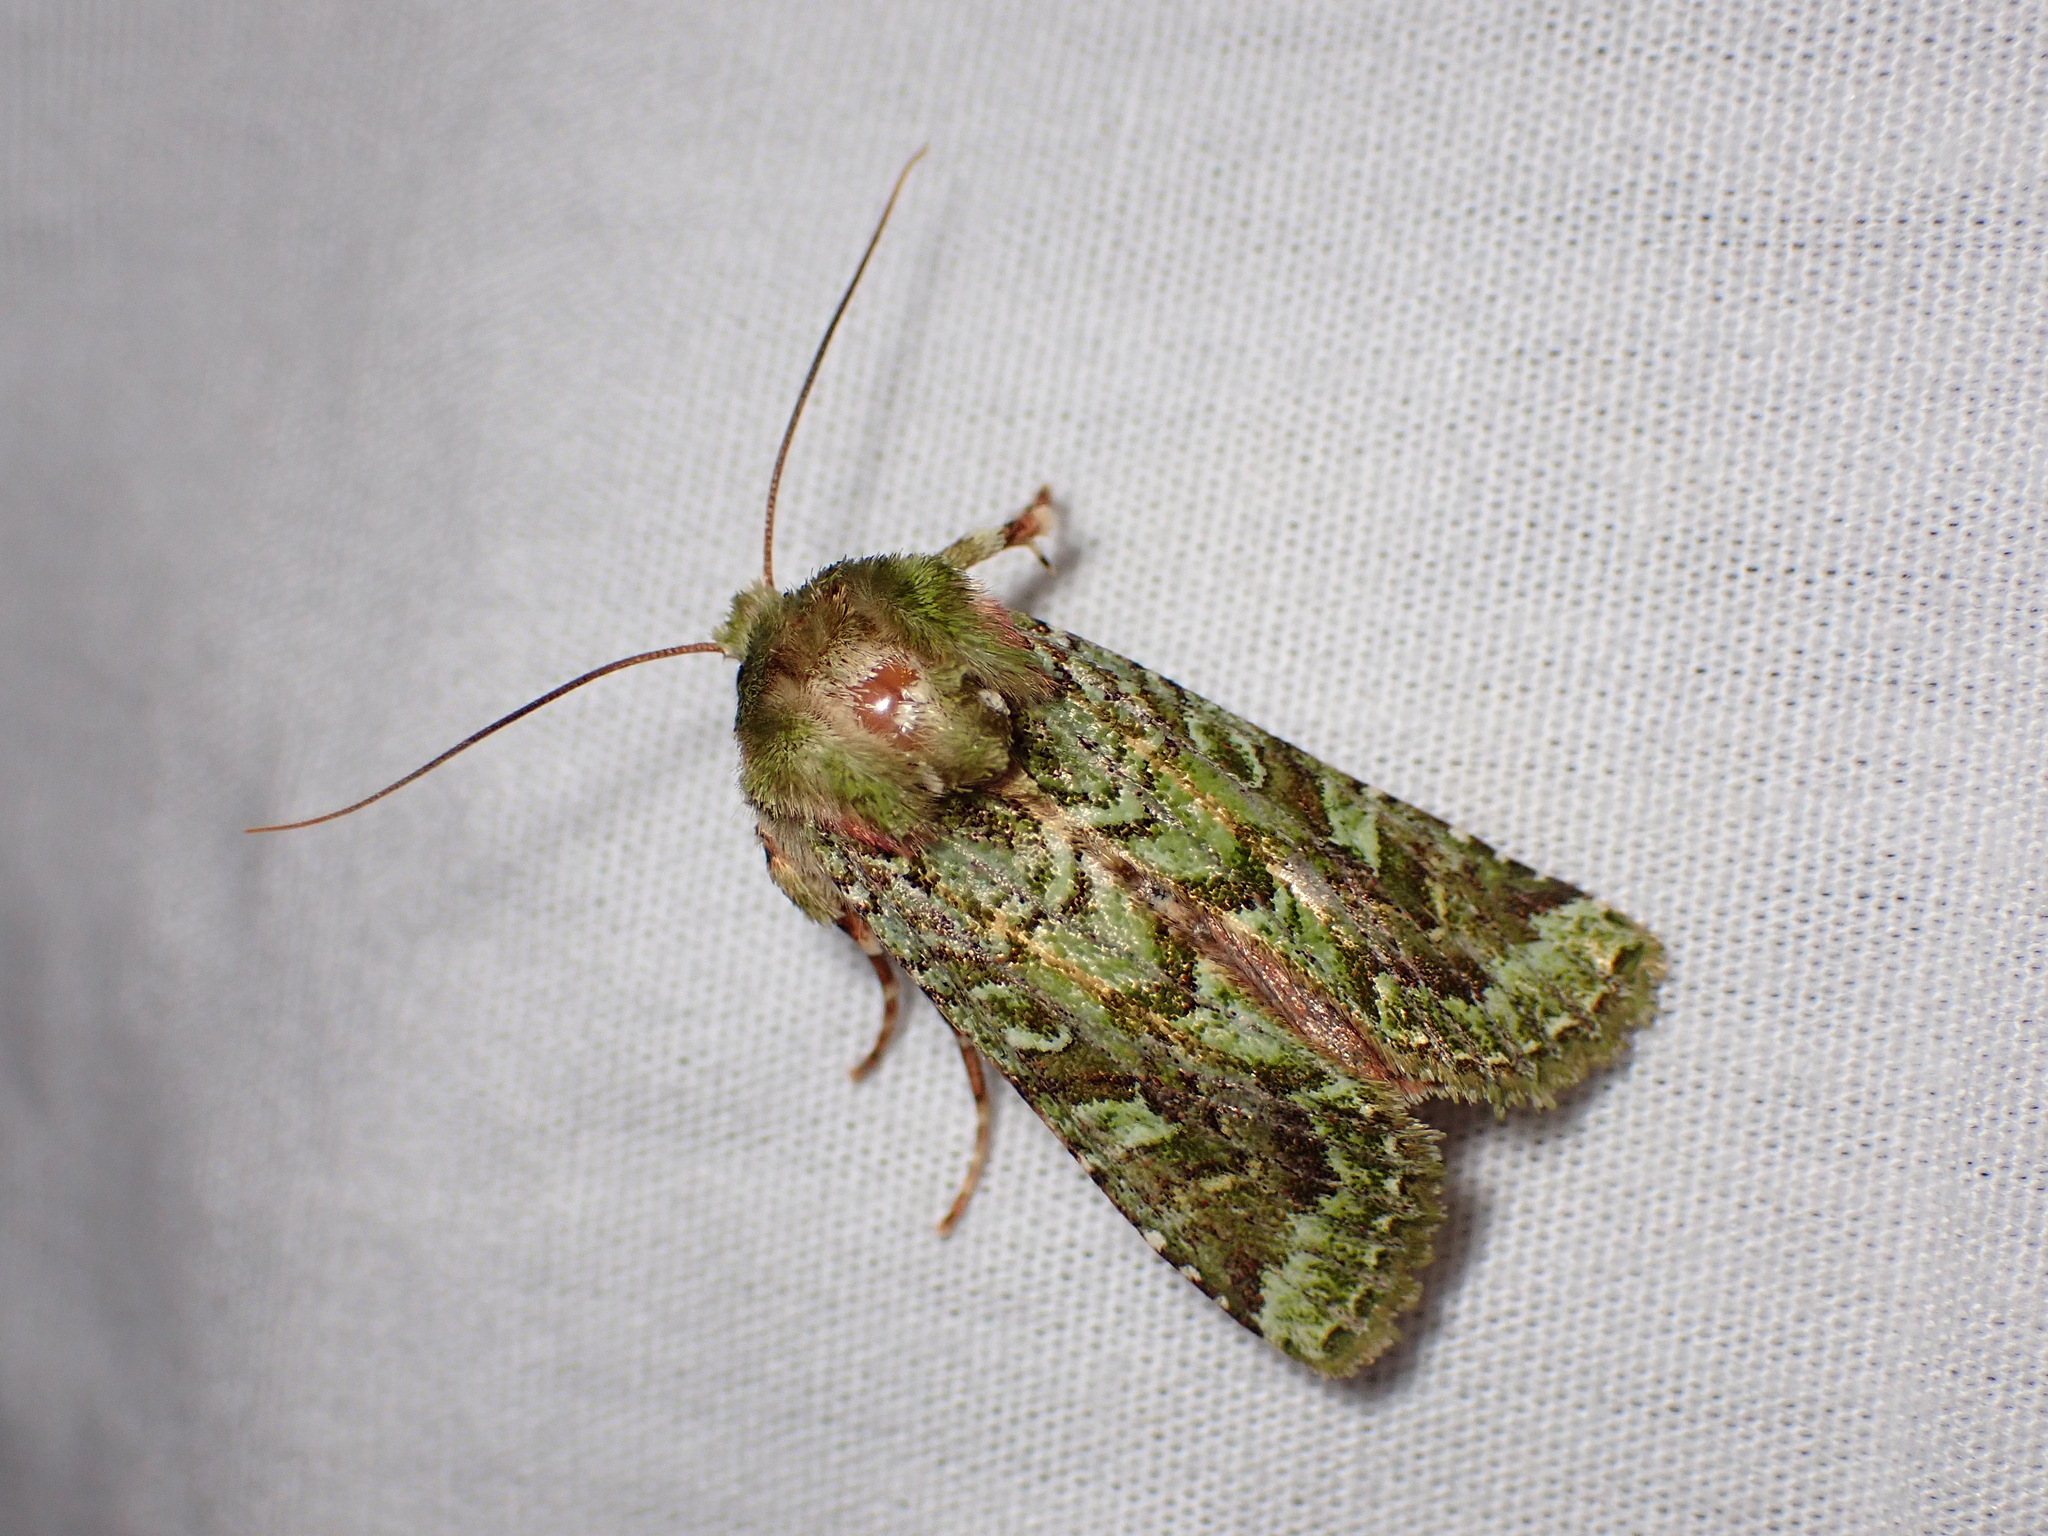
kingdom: Animalia
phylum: Arthropoda
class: Insecta
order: Lepidoptera
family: Noctuidae
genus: Feredayia
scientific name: Feredayia grammosa
